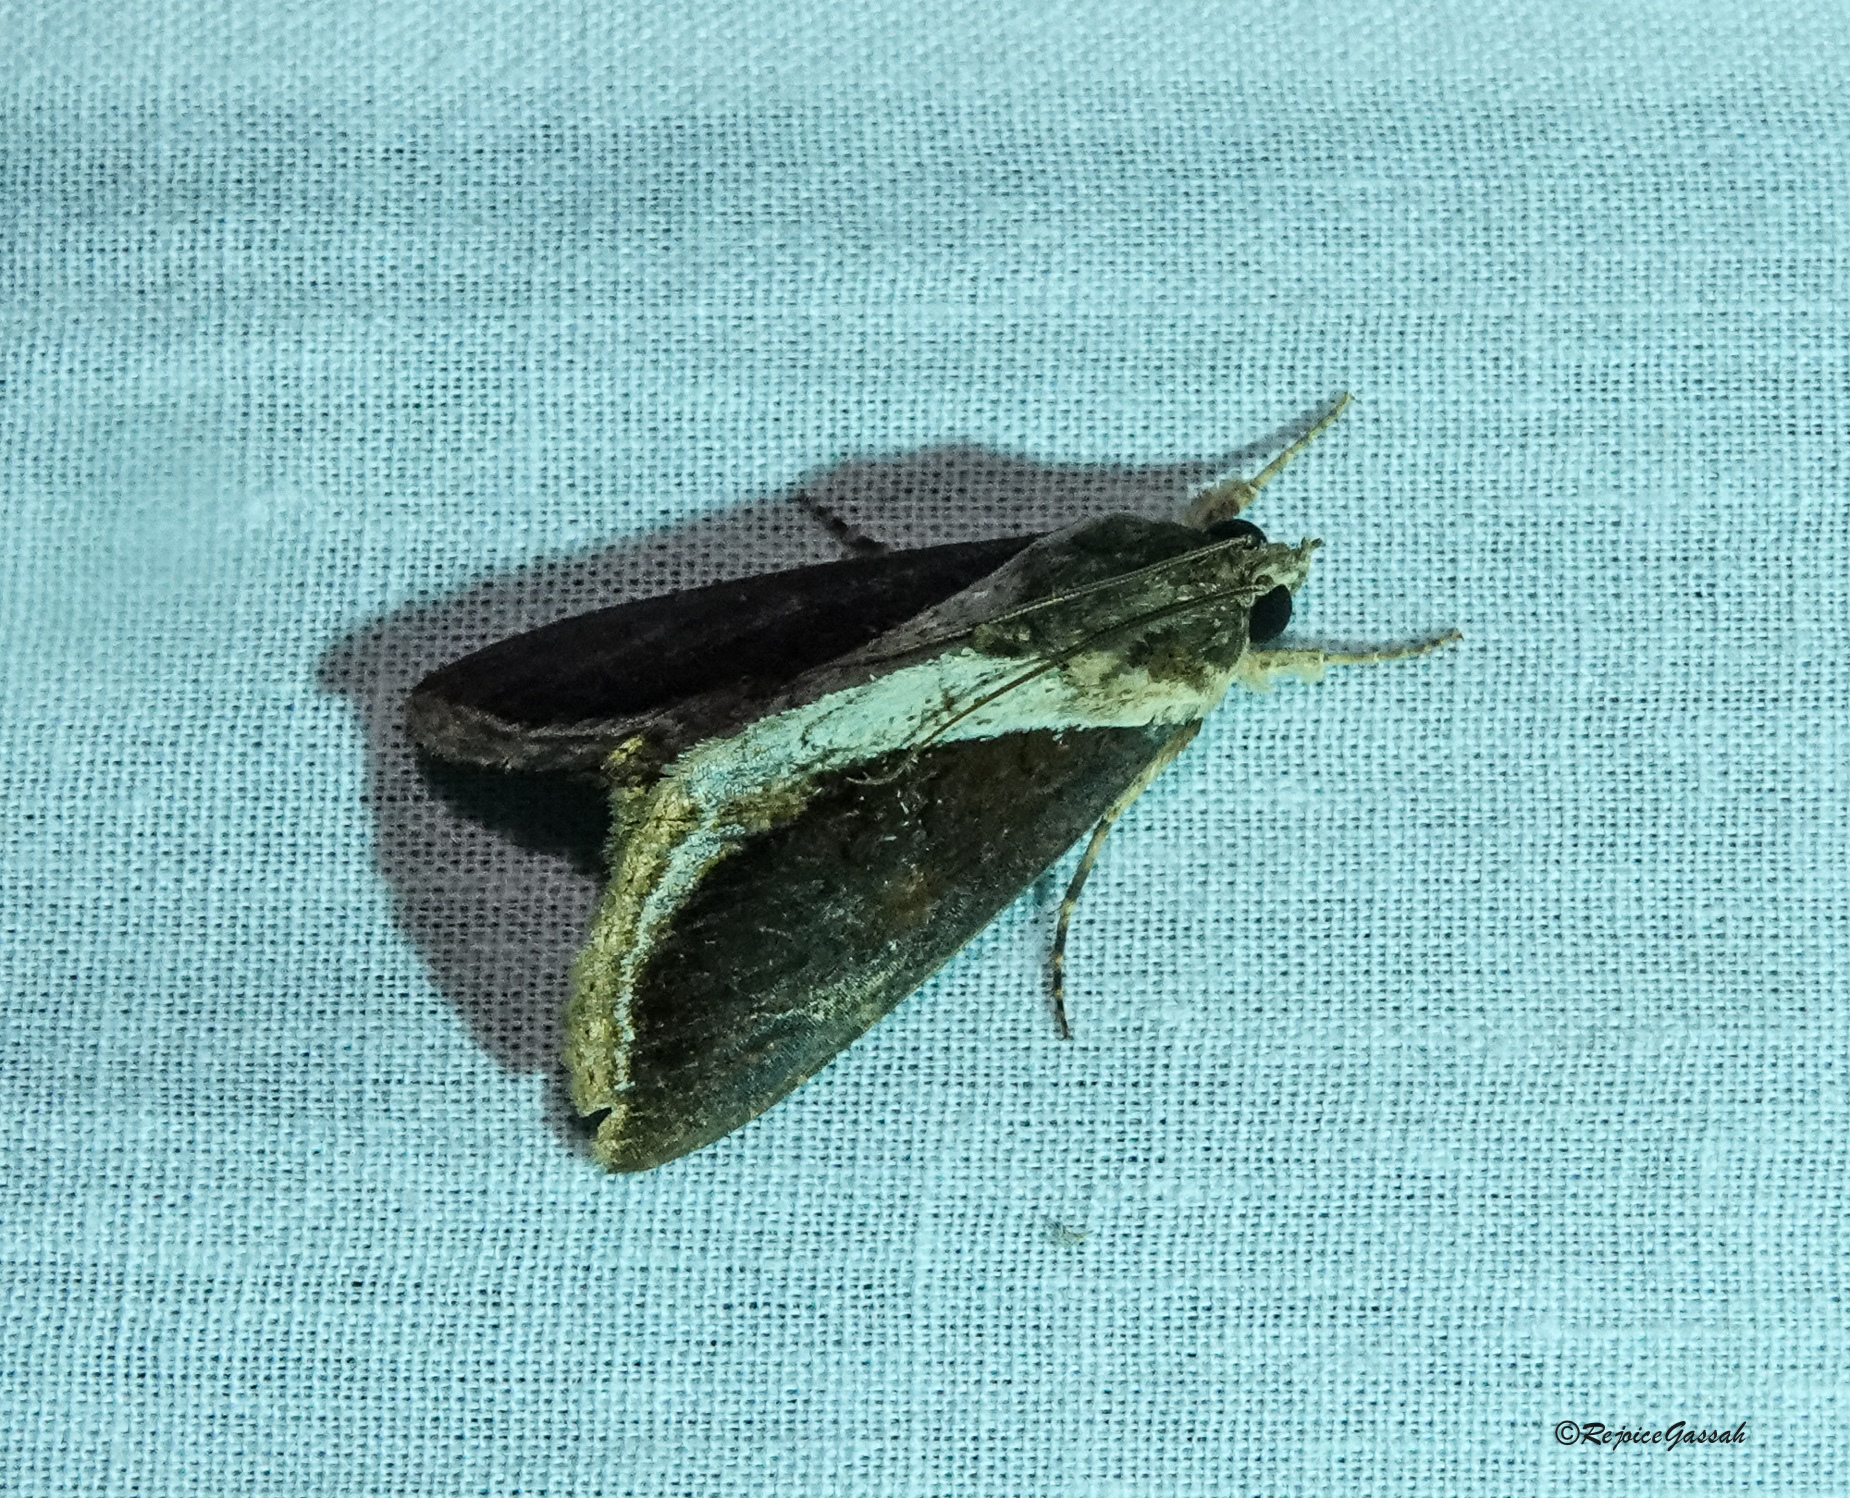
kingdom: Animalia
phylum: Arthropoda
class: Insecta
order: Lepidoptera
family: Erebidae
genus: Ercheia
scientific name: Ercheia cyllaria
